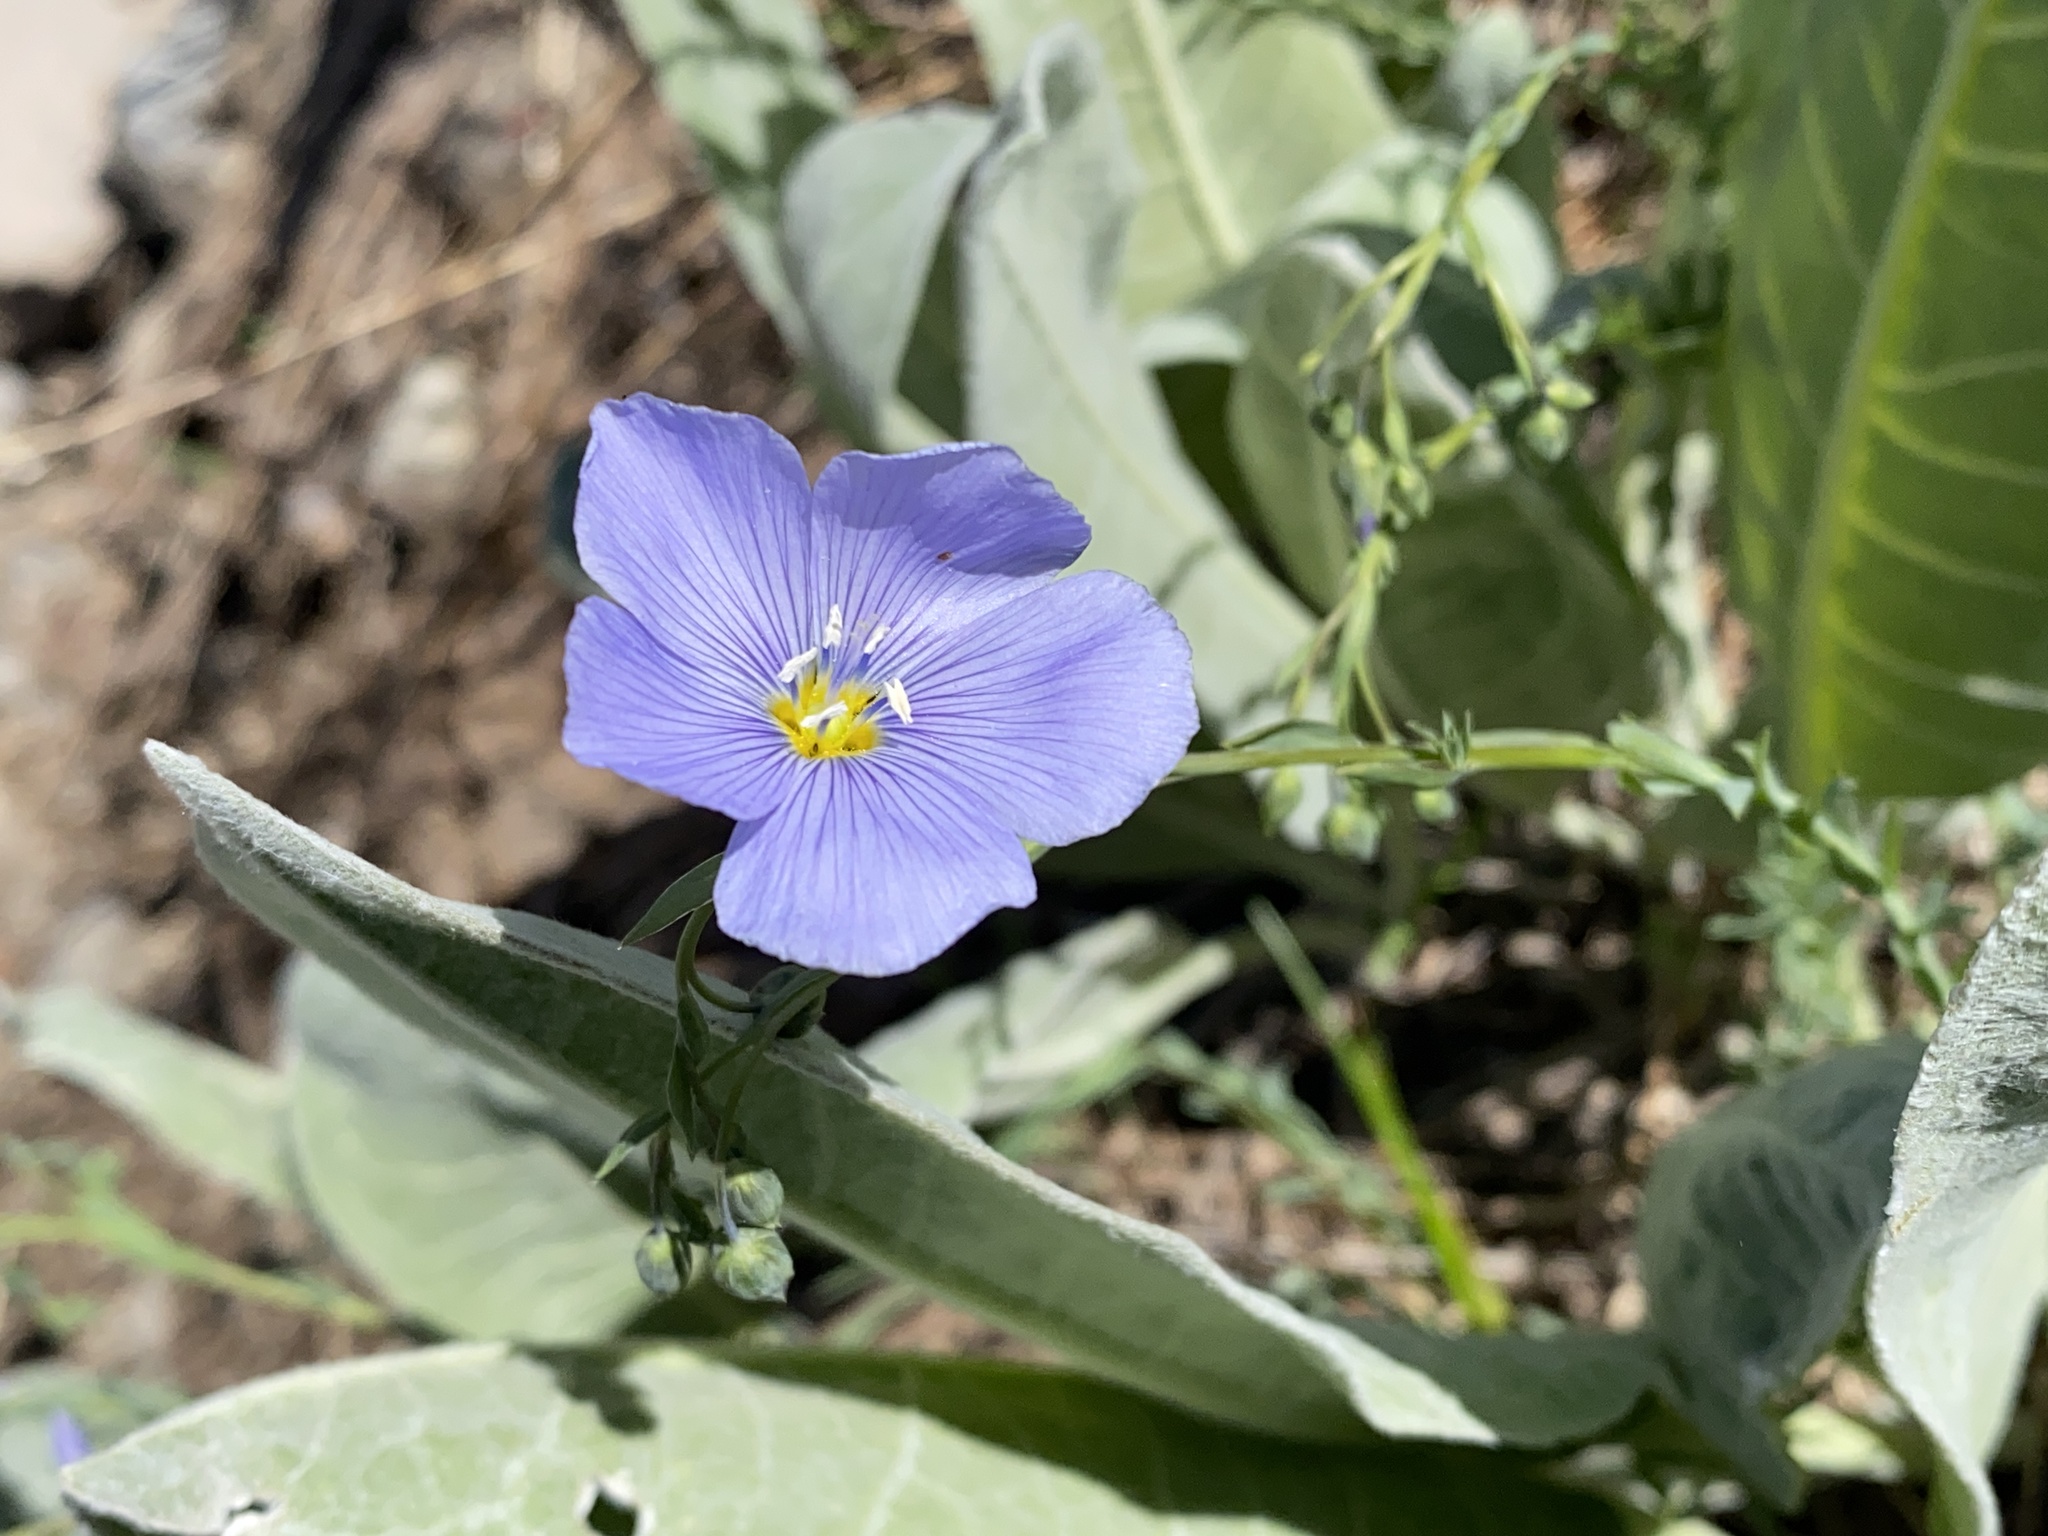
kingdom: Plantae
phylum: Tracheophyta
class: Magnoliopsida
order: Malpighiales
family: Linaceae
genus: Linum
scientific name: Linum lewisii
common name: Prairie flax
